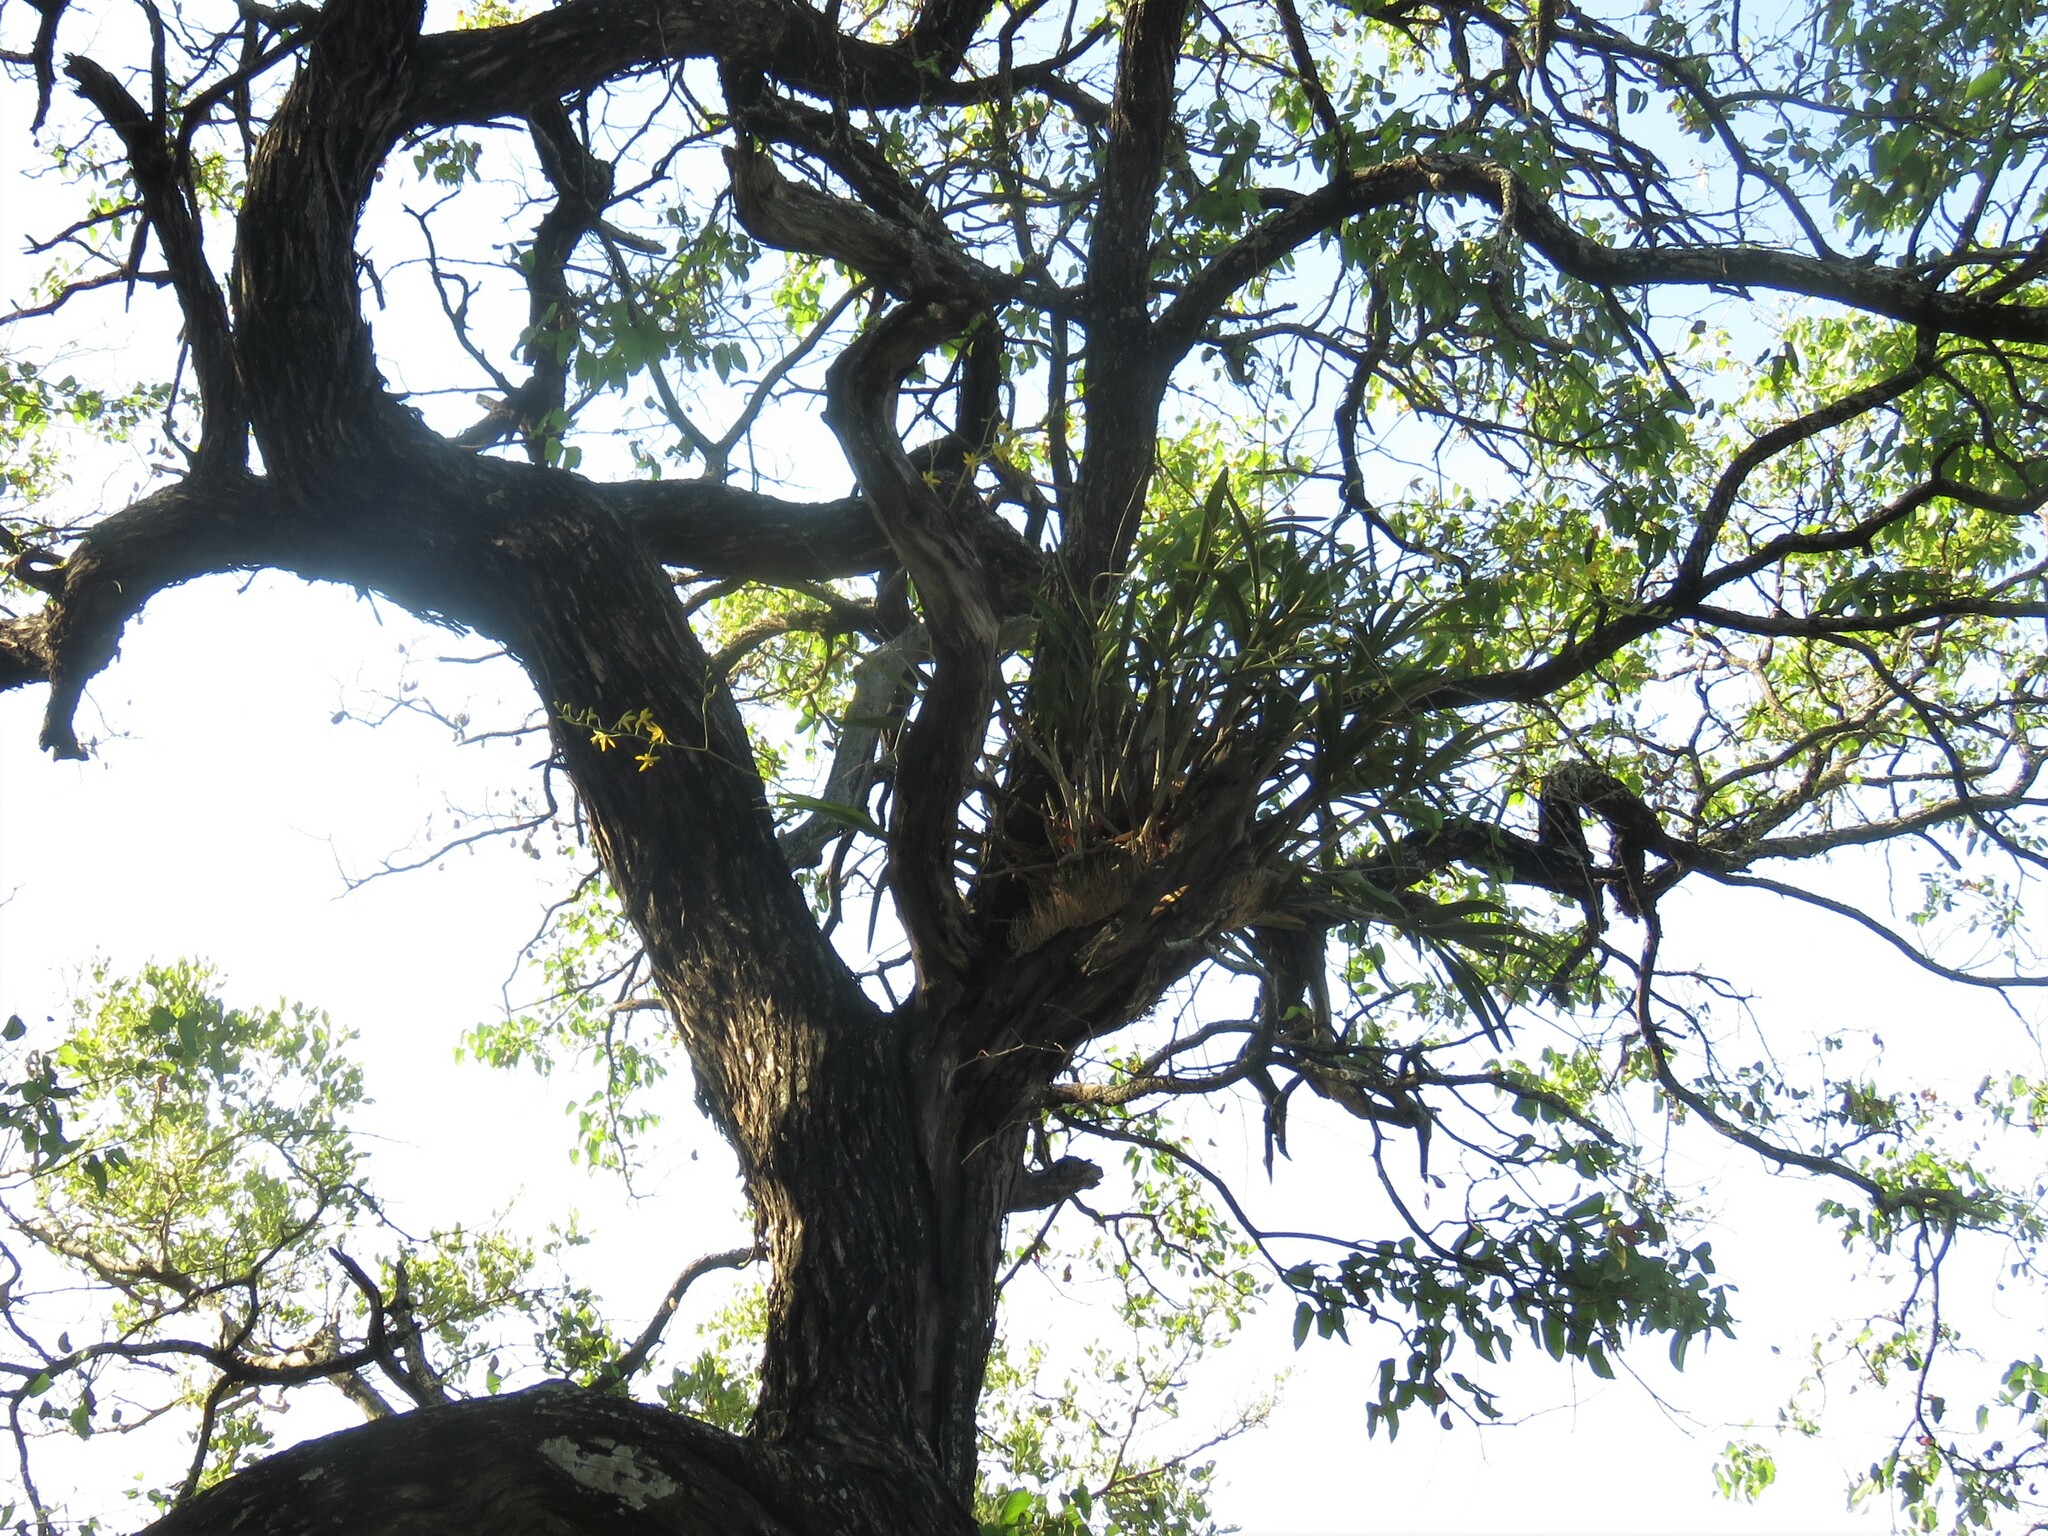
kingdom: Plantae
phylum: Tracheophyta
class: Liliopsida
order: Asparagales
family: Orchidaceae
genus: Ansellia
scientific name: Ansellia africana
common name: African ansellia
